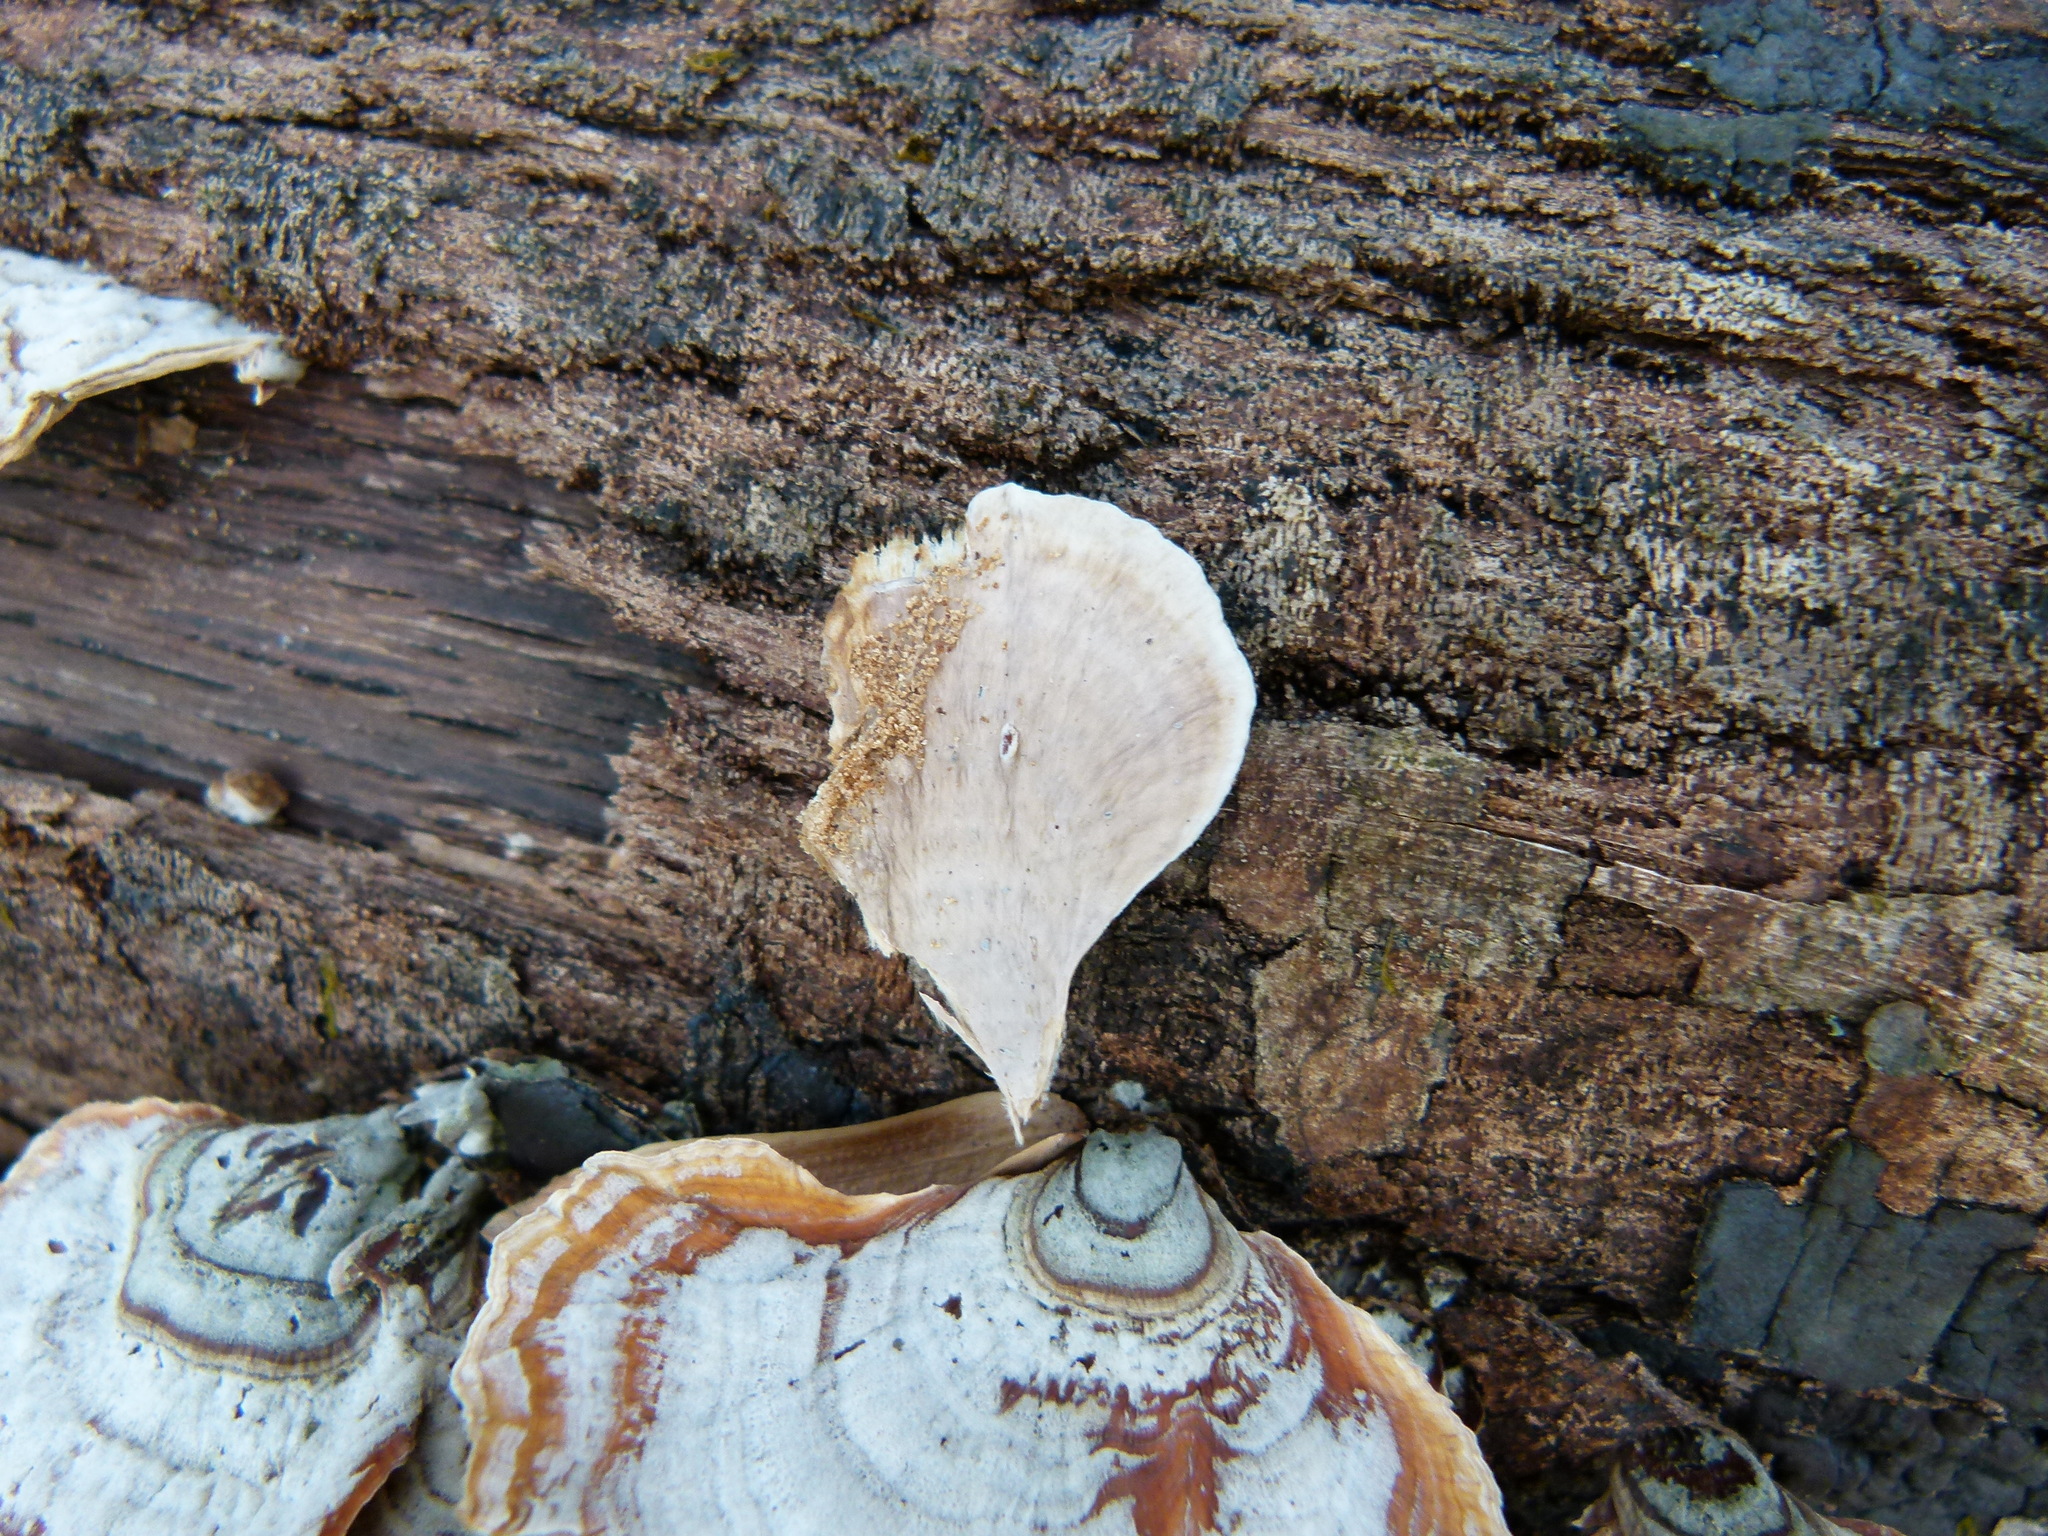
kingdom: Fungi
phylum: Basidiomycota
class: Agaricomycetes
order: Russulales
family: Stereaceae
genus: Stereum
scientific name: Stereum ostrea
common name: False turkeytail
